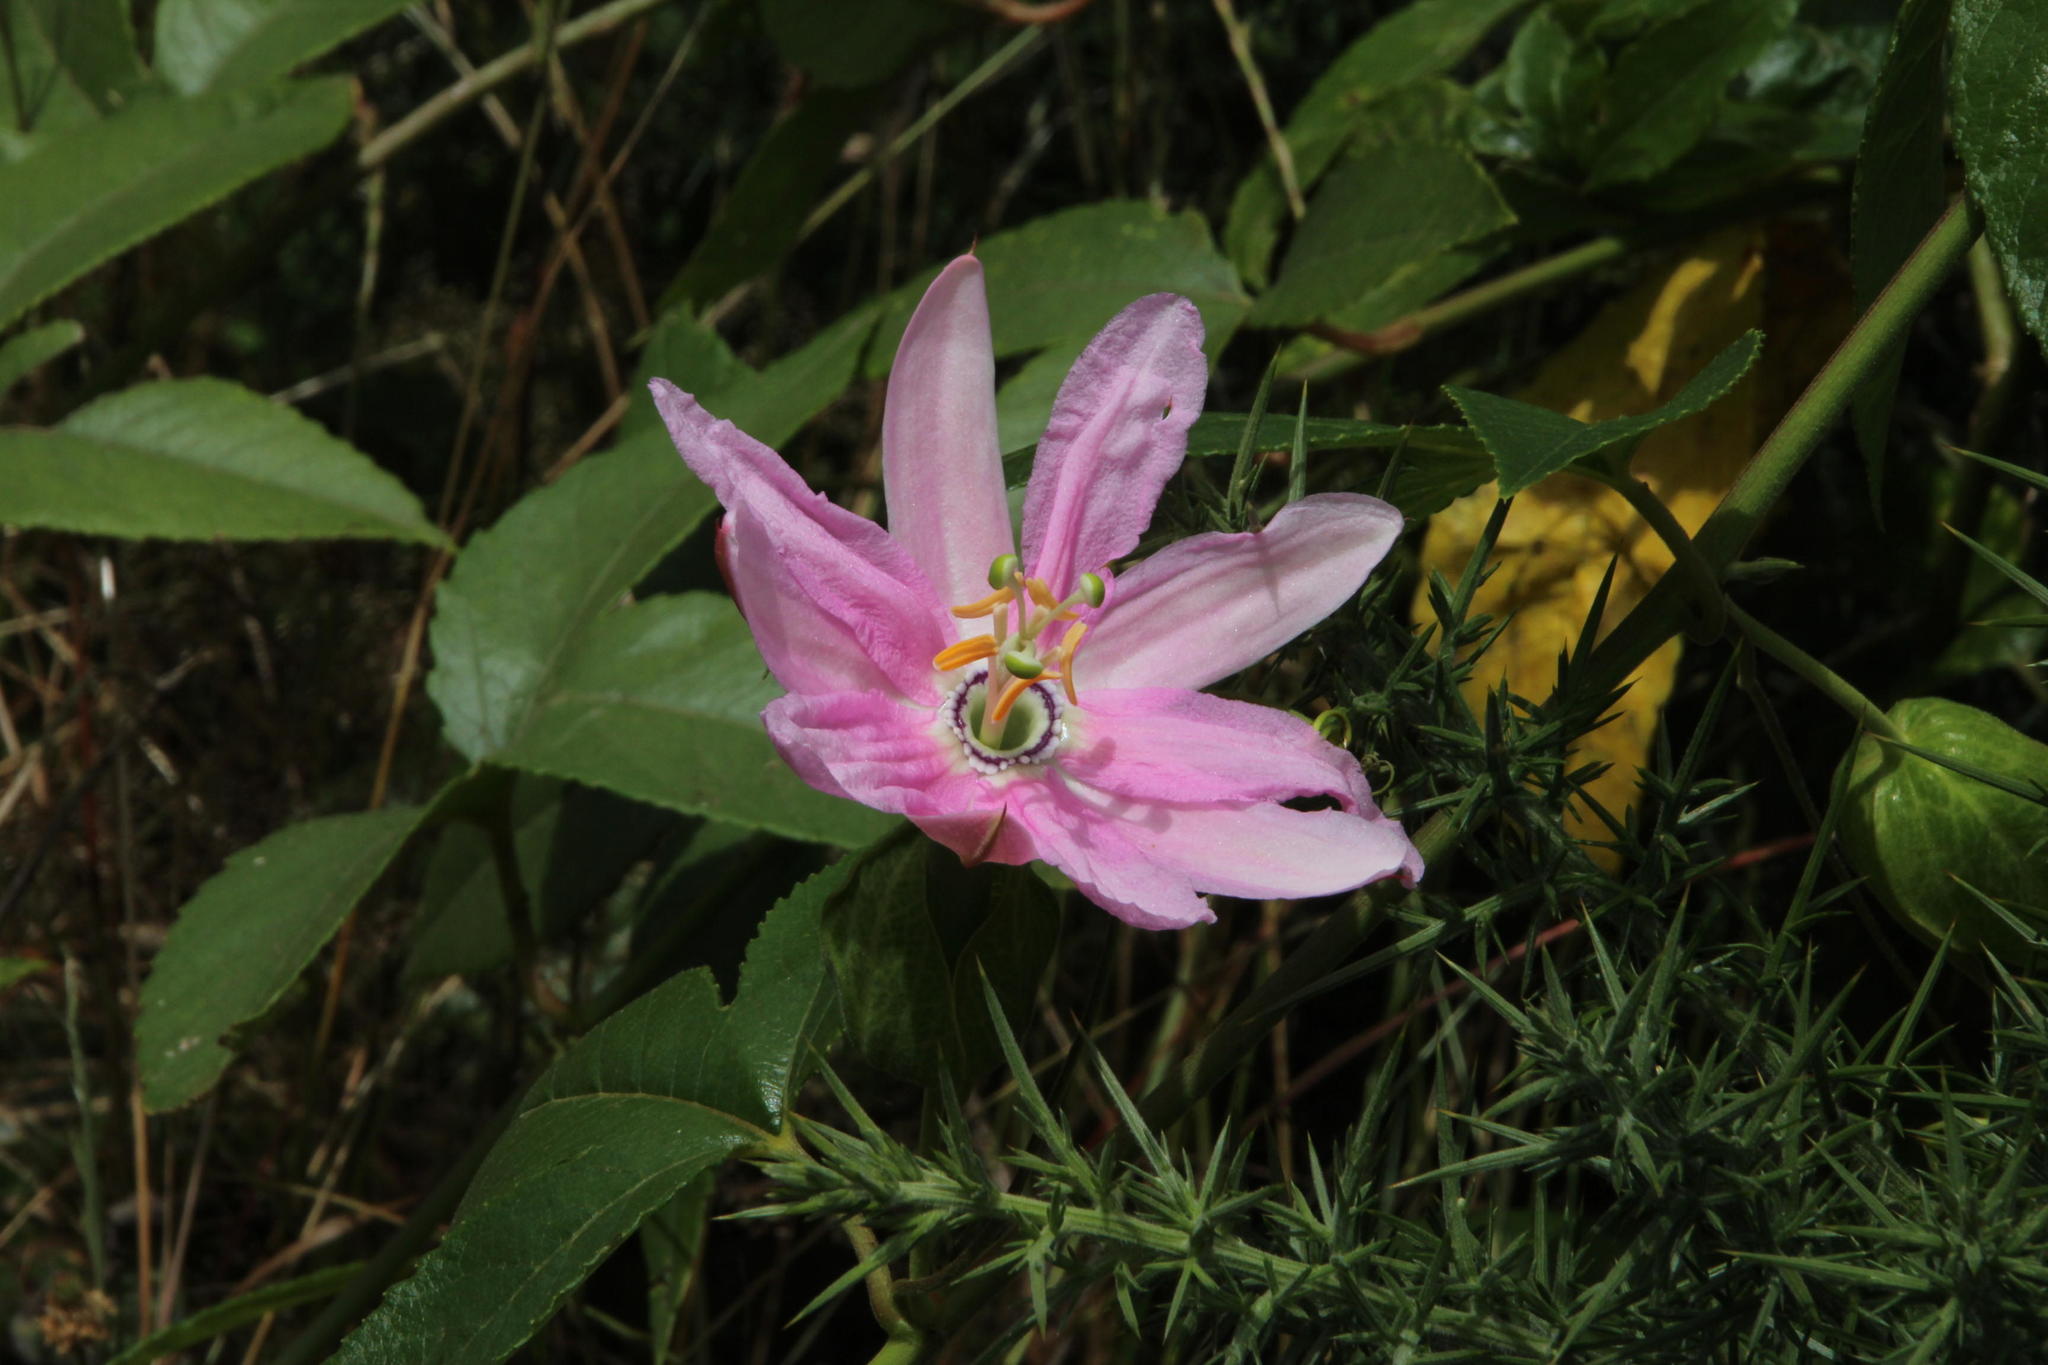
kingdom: Plantae
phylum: Tracheophyta
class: Magnoliopsida
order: Malpighiales
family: Passifloraceae
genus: Passiflora
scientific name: Passiflora tarminiana
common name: Banana poka
